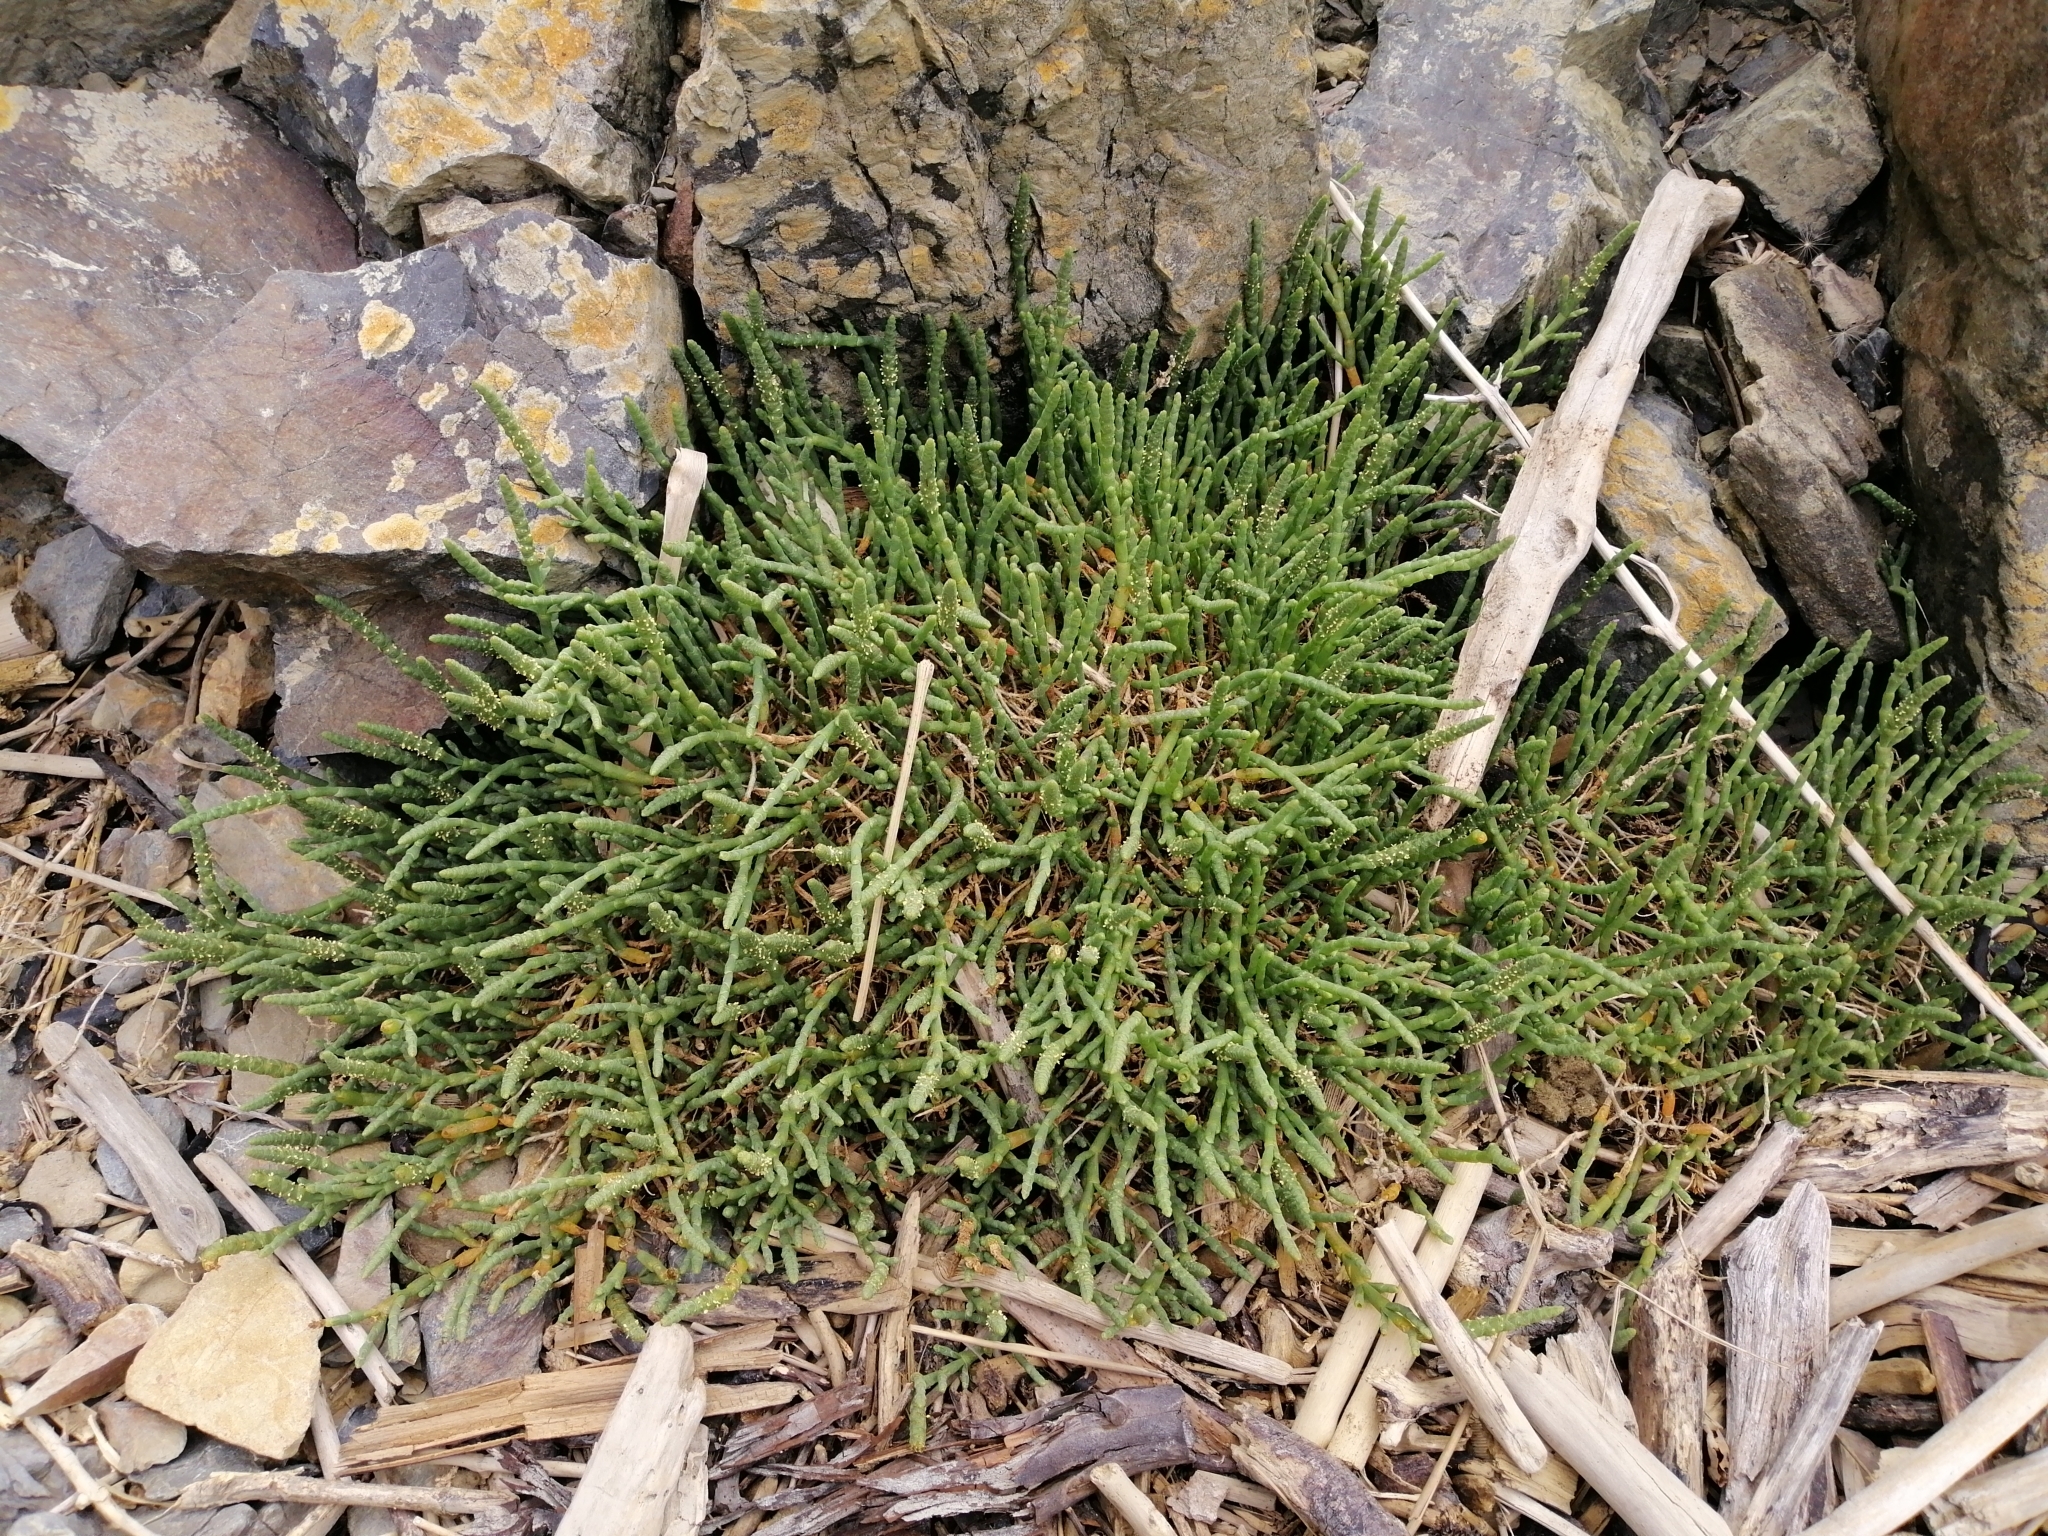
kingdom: Plantae
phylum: Tracheophyta
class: Magnoliopsida
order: Caryophyllales
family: Amaranthaceae
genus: Salicornia
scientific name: Salicornia quinqueflora
